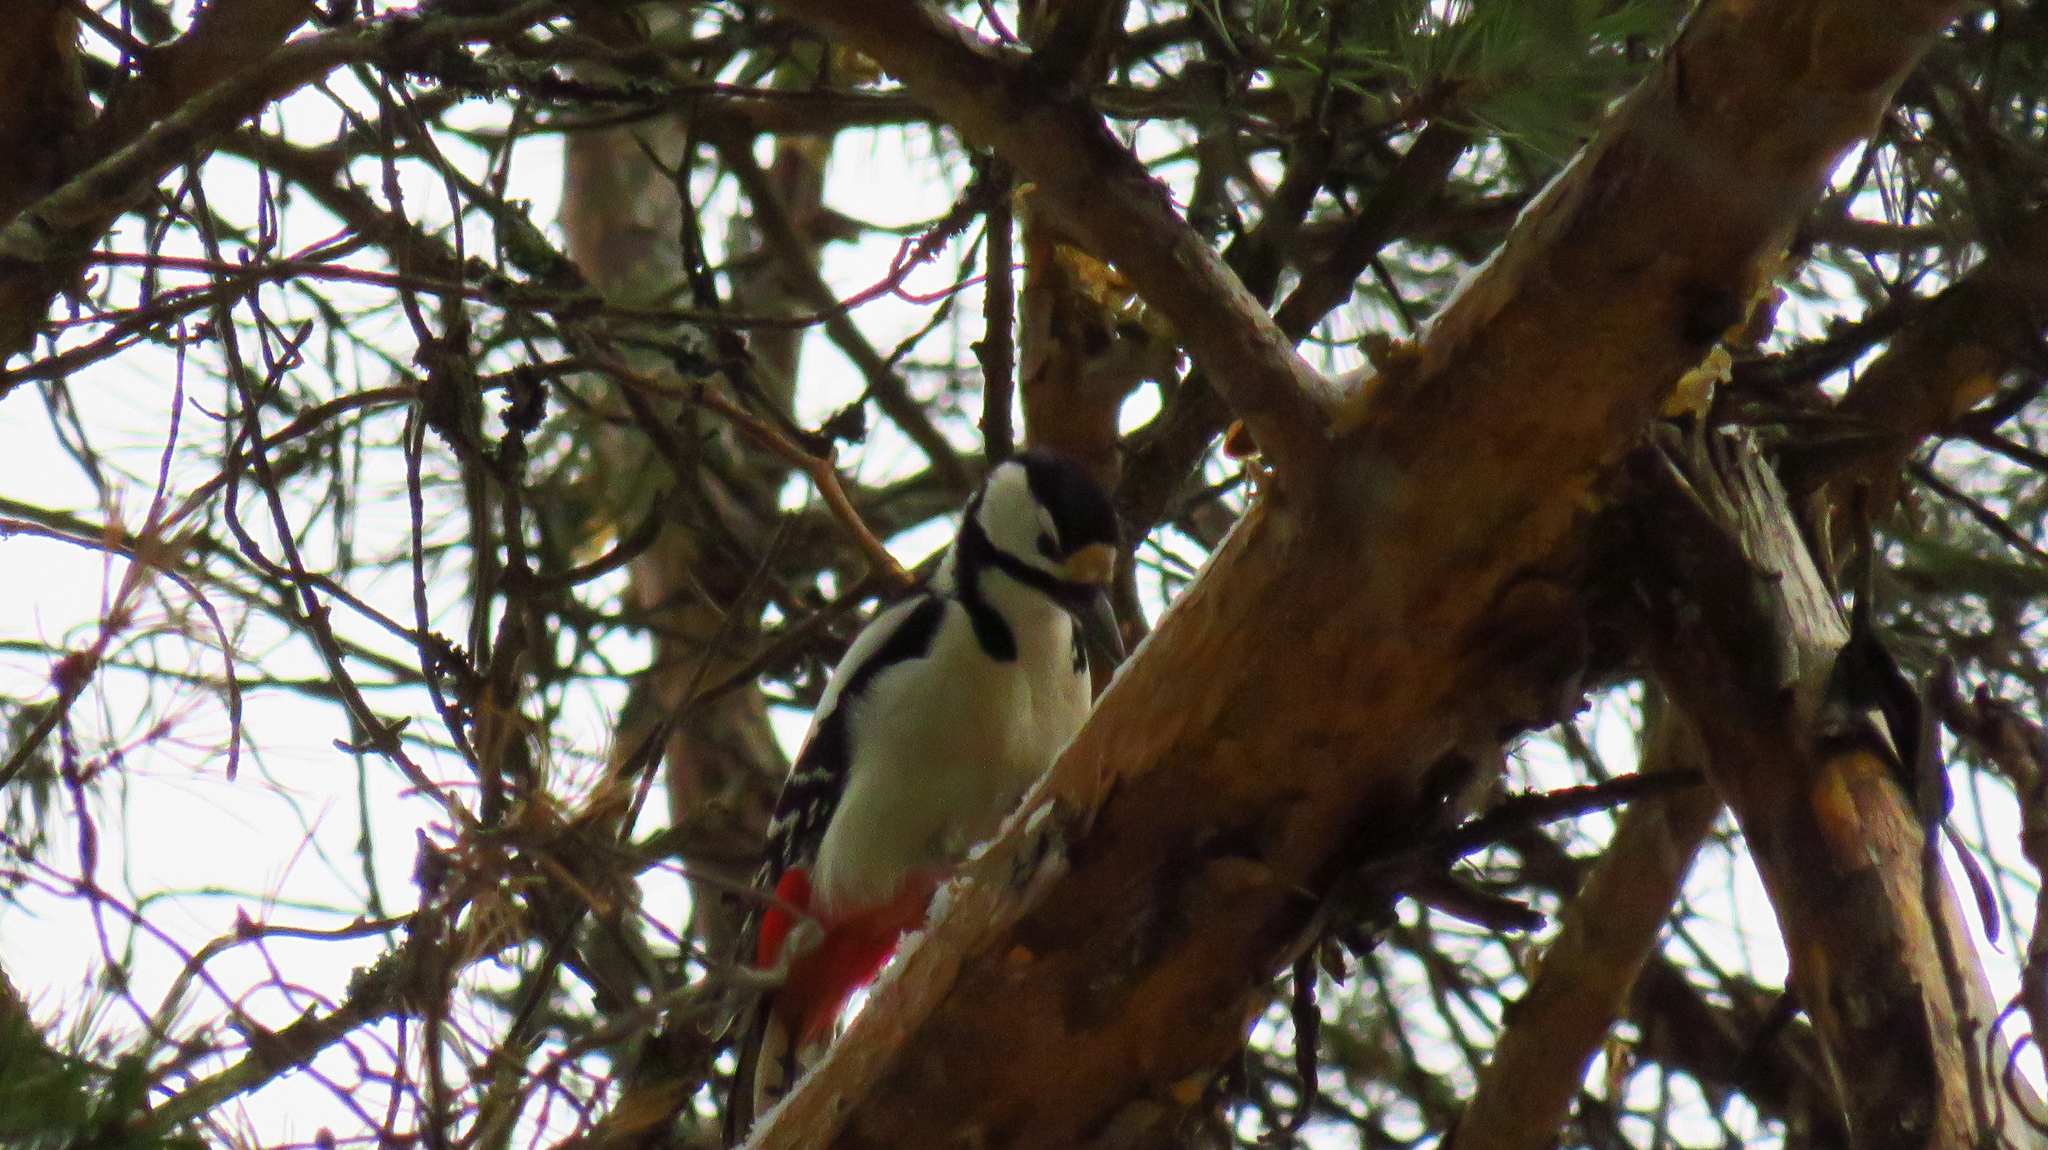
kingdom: Animalia
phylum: Chordata
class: Aves
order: Piciformes
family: Picidae
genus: Dendrocopos
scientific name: Dendrocopos major
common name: Great spotted woodpecker
